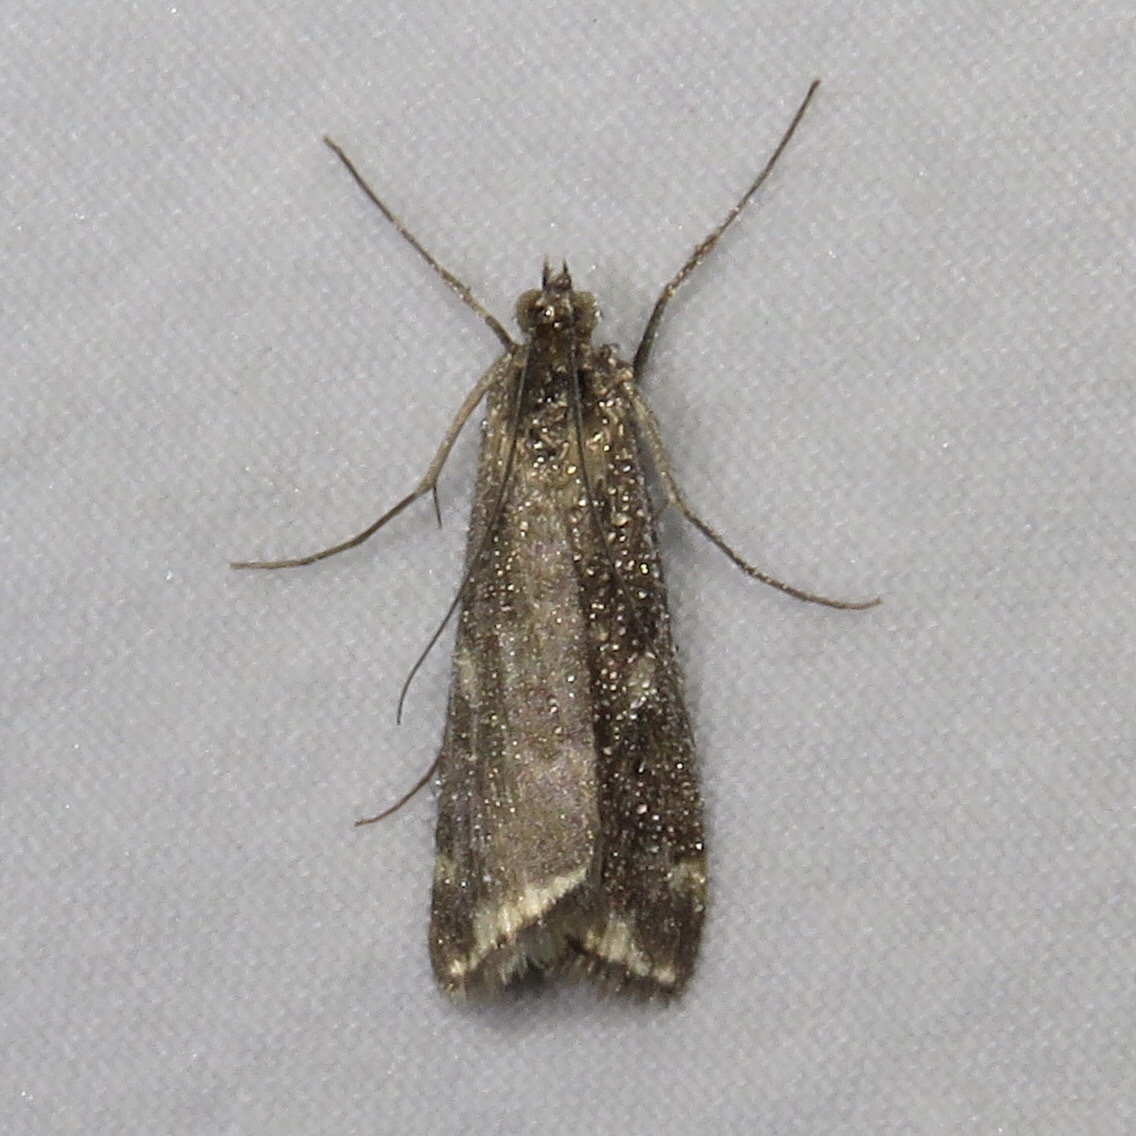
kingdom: Animalia
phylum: Arthropoda
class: Insecta
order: Lepidoptera
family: Crambidae
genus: Loxostege
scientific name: Loxostege
